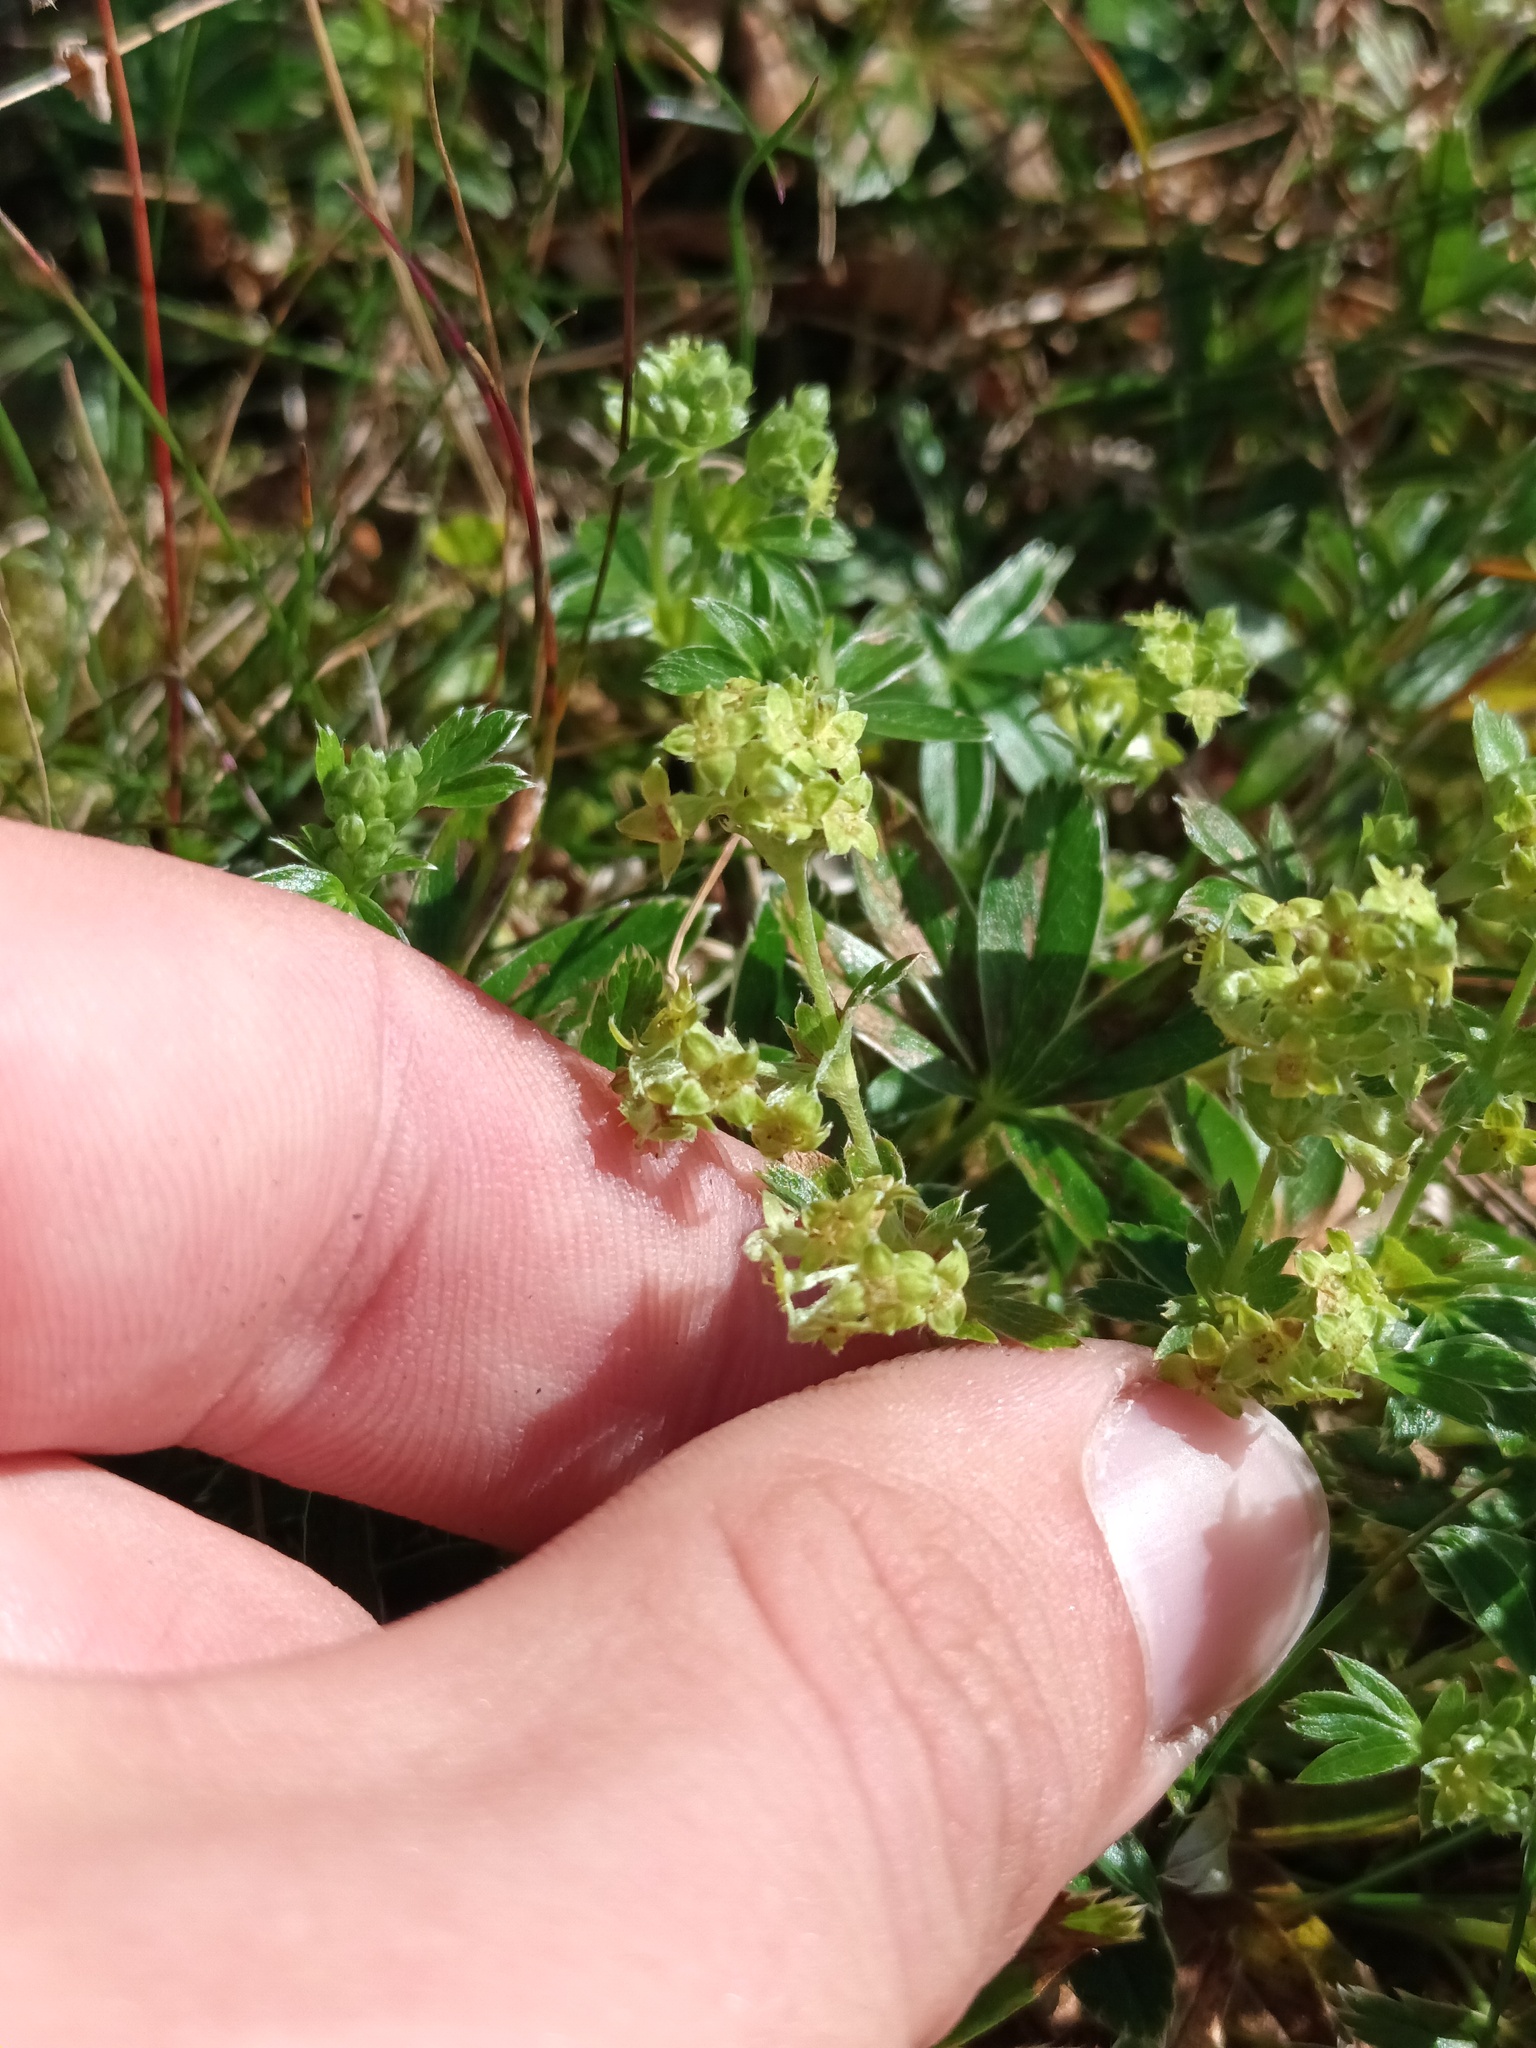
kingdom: Plantae
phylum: Tracheophyta
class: Magnoliopsida
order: Rosales
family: Rosaceae
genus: Alchemilla
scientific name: Alchemilla alpina
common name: Alpine lady's-mantle
